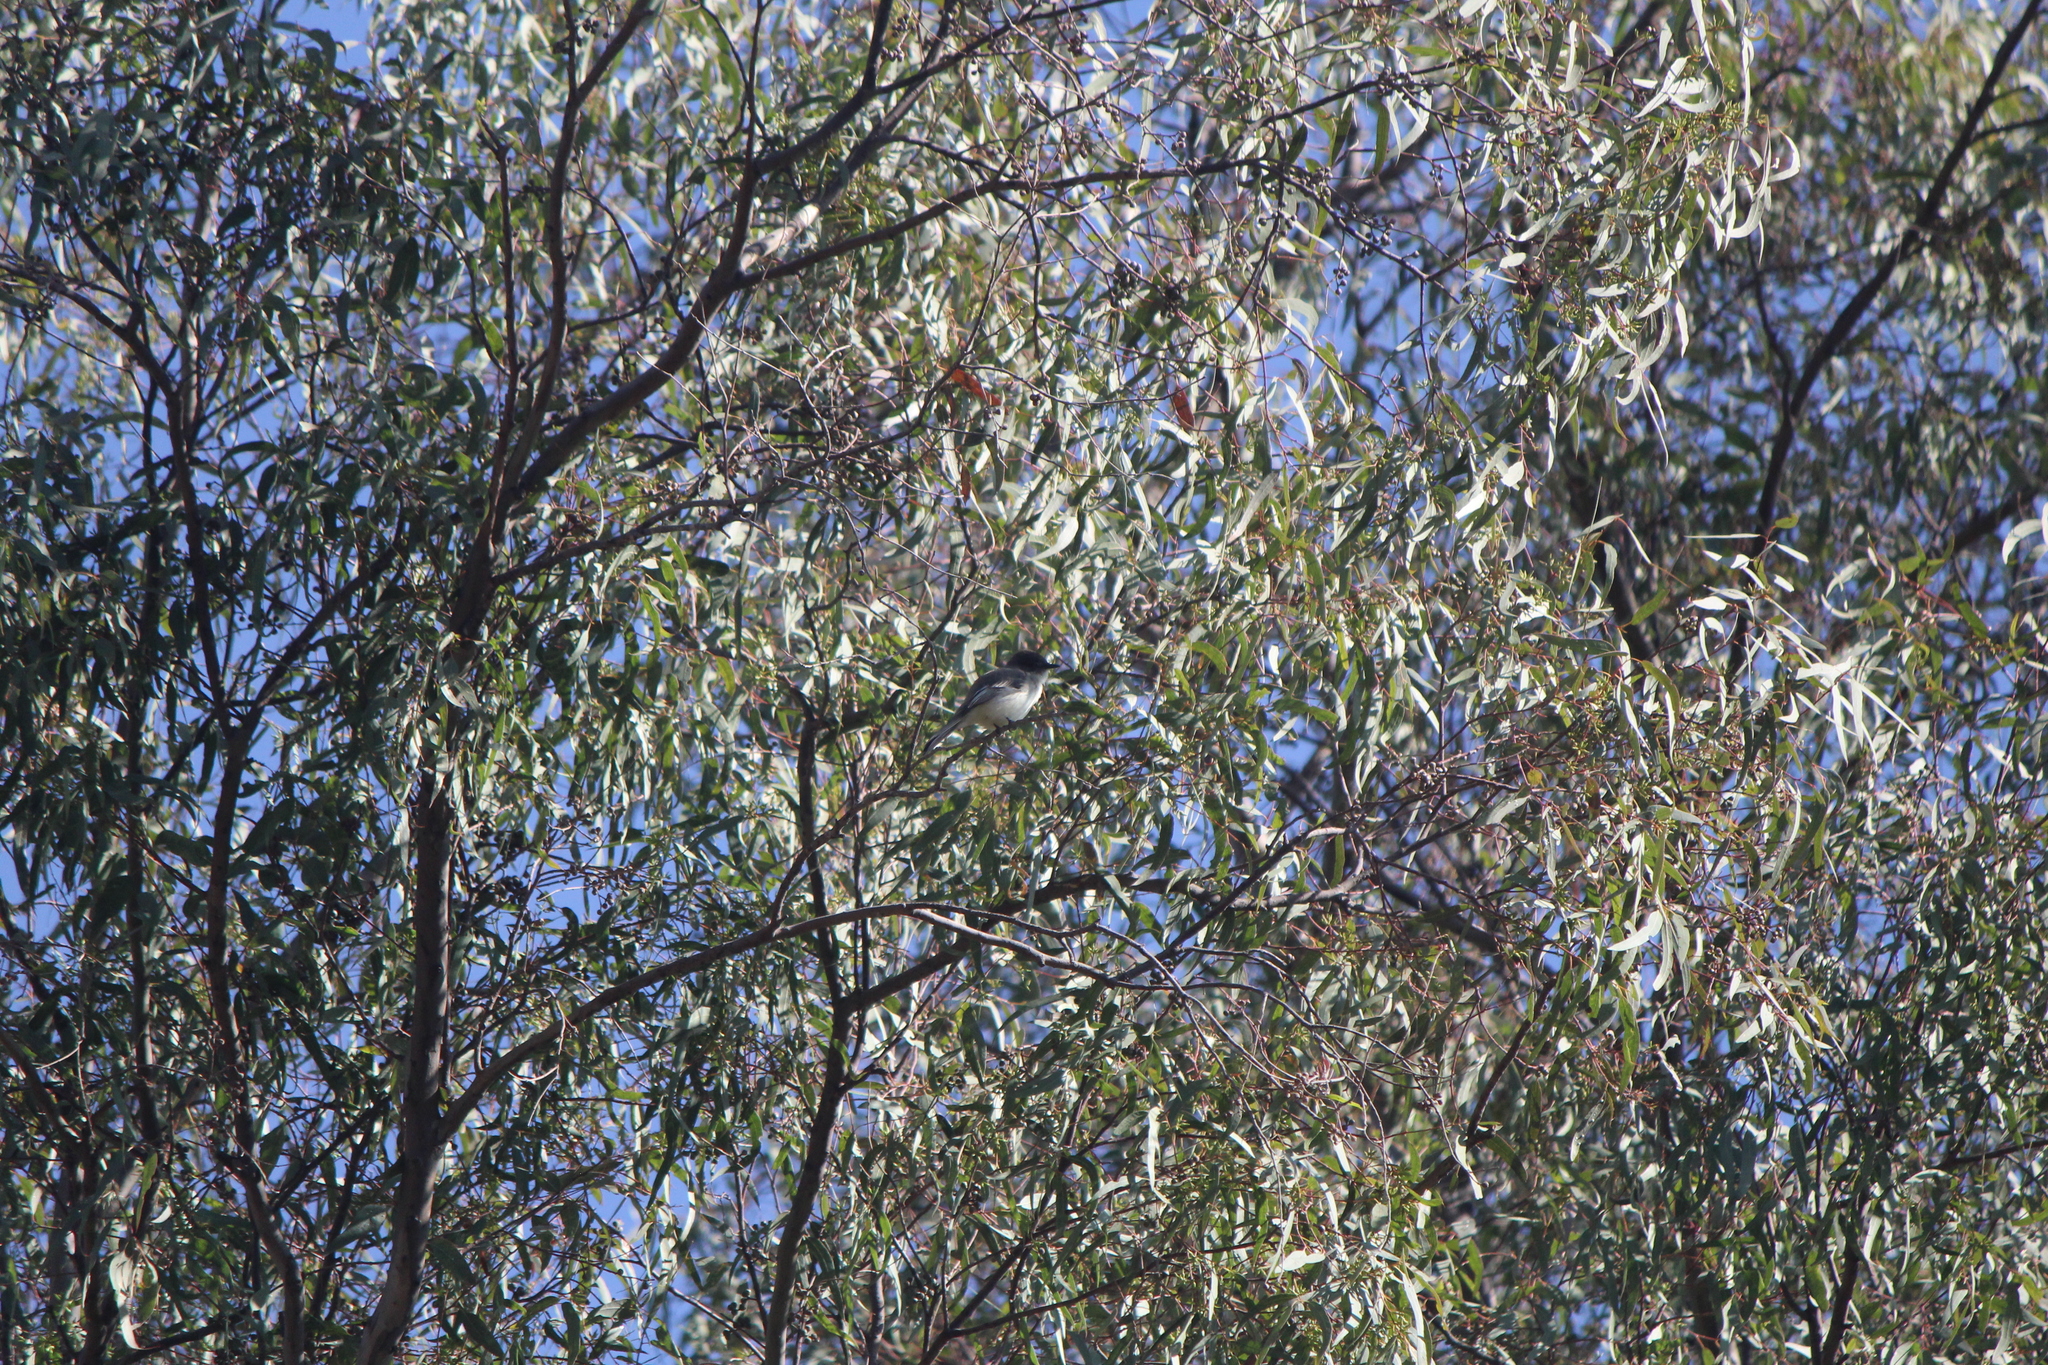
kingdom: Animalia
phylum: Chordata
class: Aves
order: Passeriformes
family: Tyrannidae
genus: Sayornis
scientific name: Sayornis phoebe
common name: Eastern phoebe
